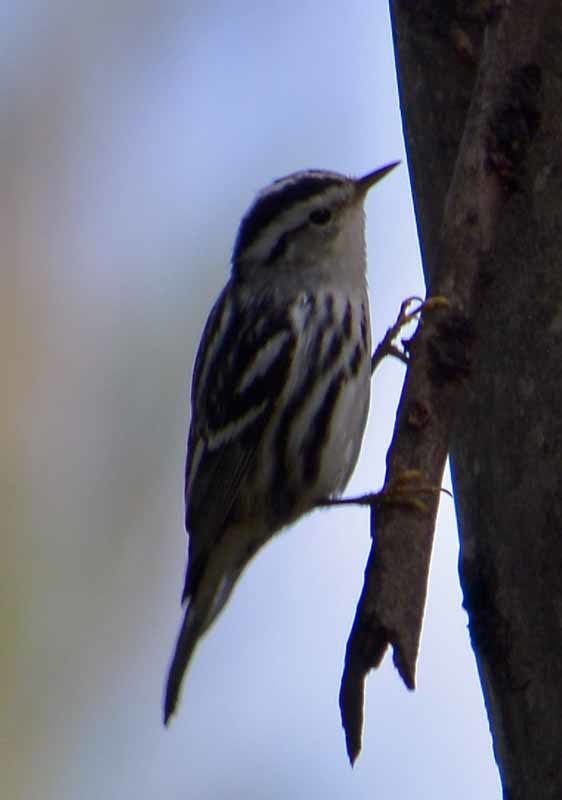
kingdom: Animalia
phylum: Chordata
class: Aves
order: Passeriformes
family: Parulidae
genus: Mniotilta
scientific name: Mniotilta varia
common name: Black-and-white warbler
